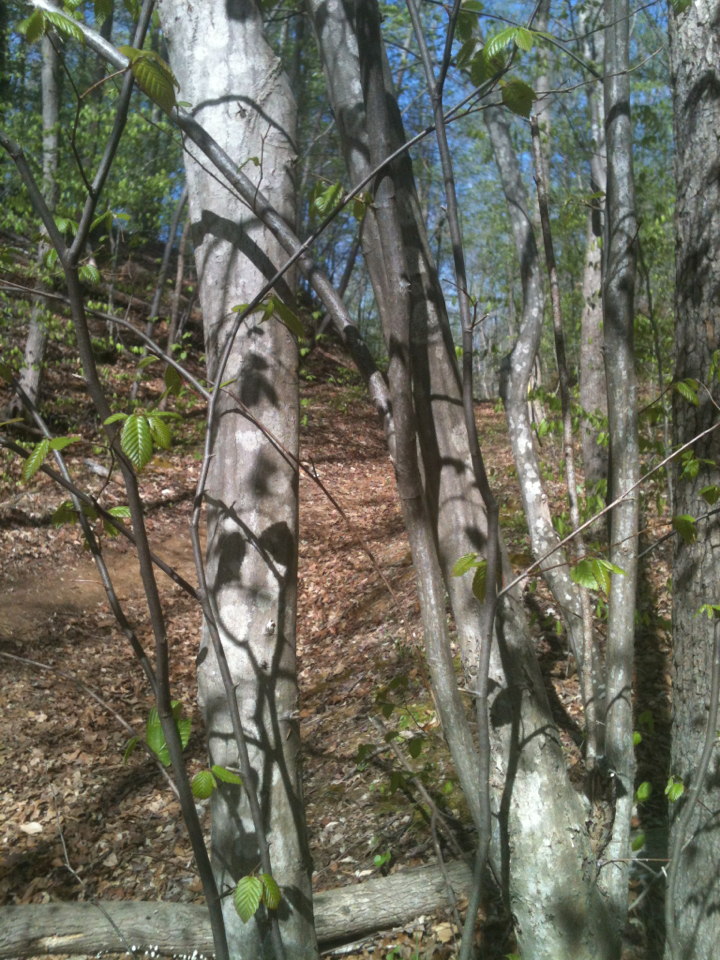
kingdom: Plantae
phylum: Tracheophyta
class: Magnoliopsida
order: Fagales
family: Betulaceae
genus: Carpinus
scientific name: Carpinus caroliniana
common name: American hornbeam
